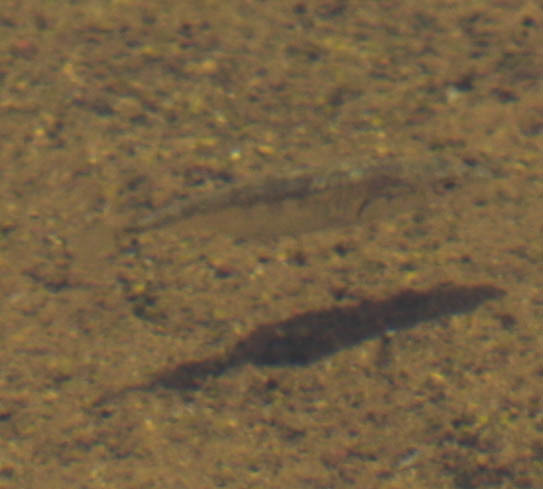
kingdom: Animalia
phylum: Chordata
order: Gasterosteiformes
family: Gasterosteidae
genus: Gasterosteus
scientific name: Gasterosteus aculeatus
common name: Three-spined stickleback
